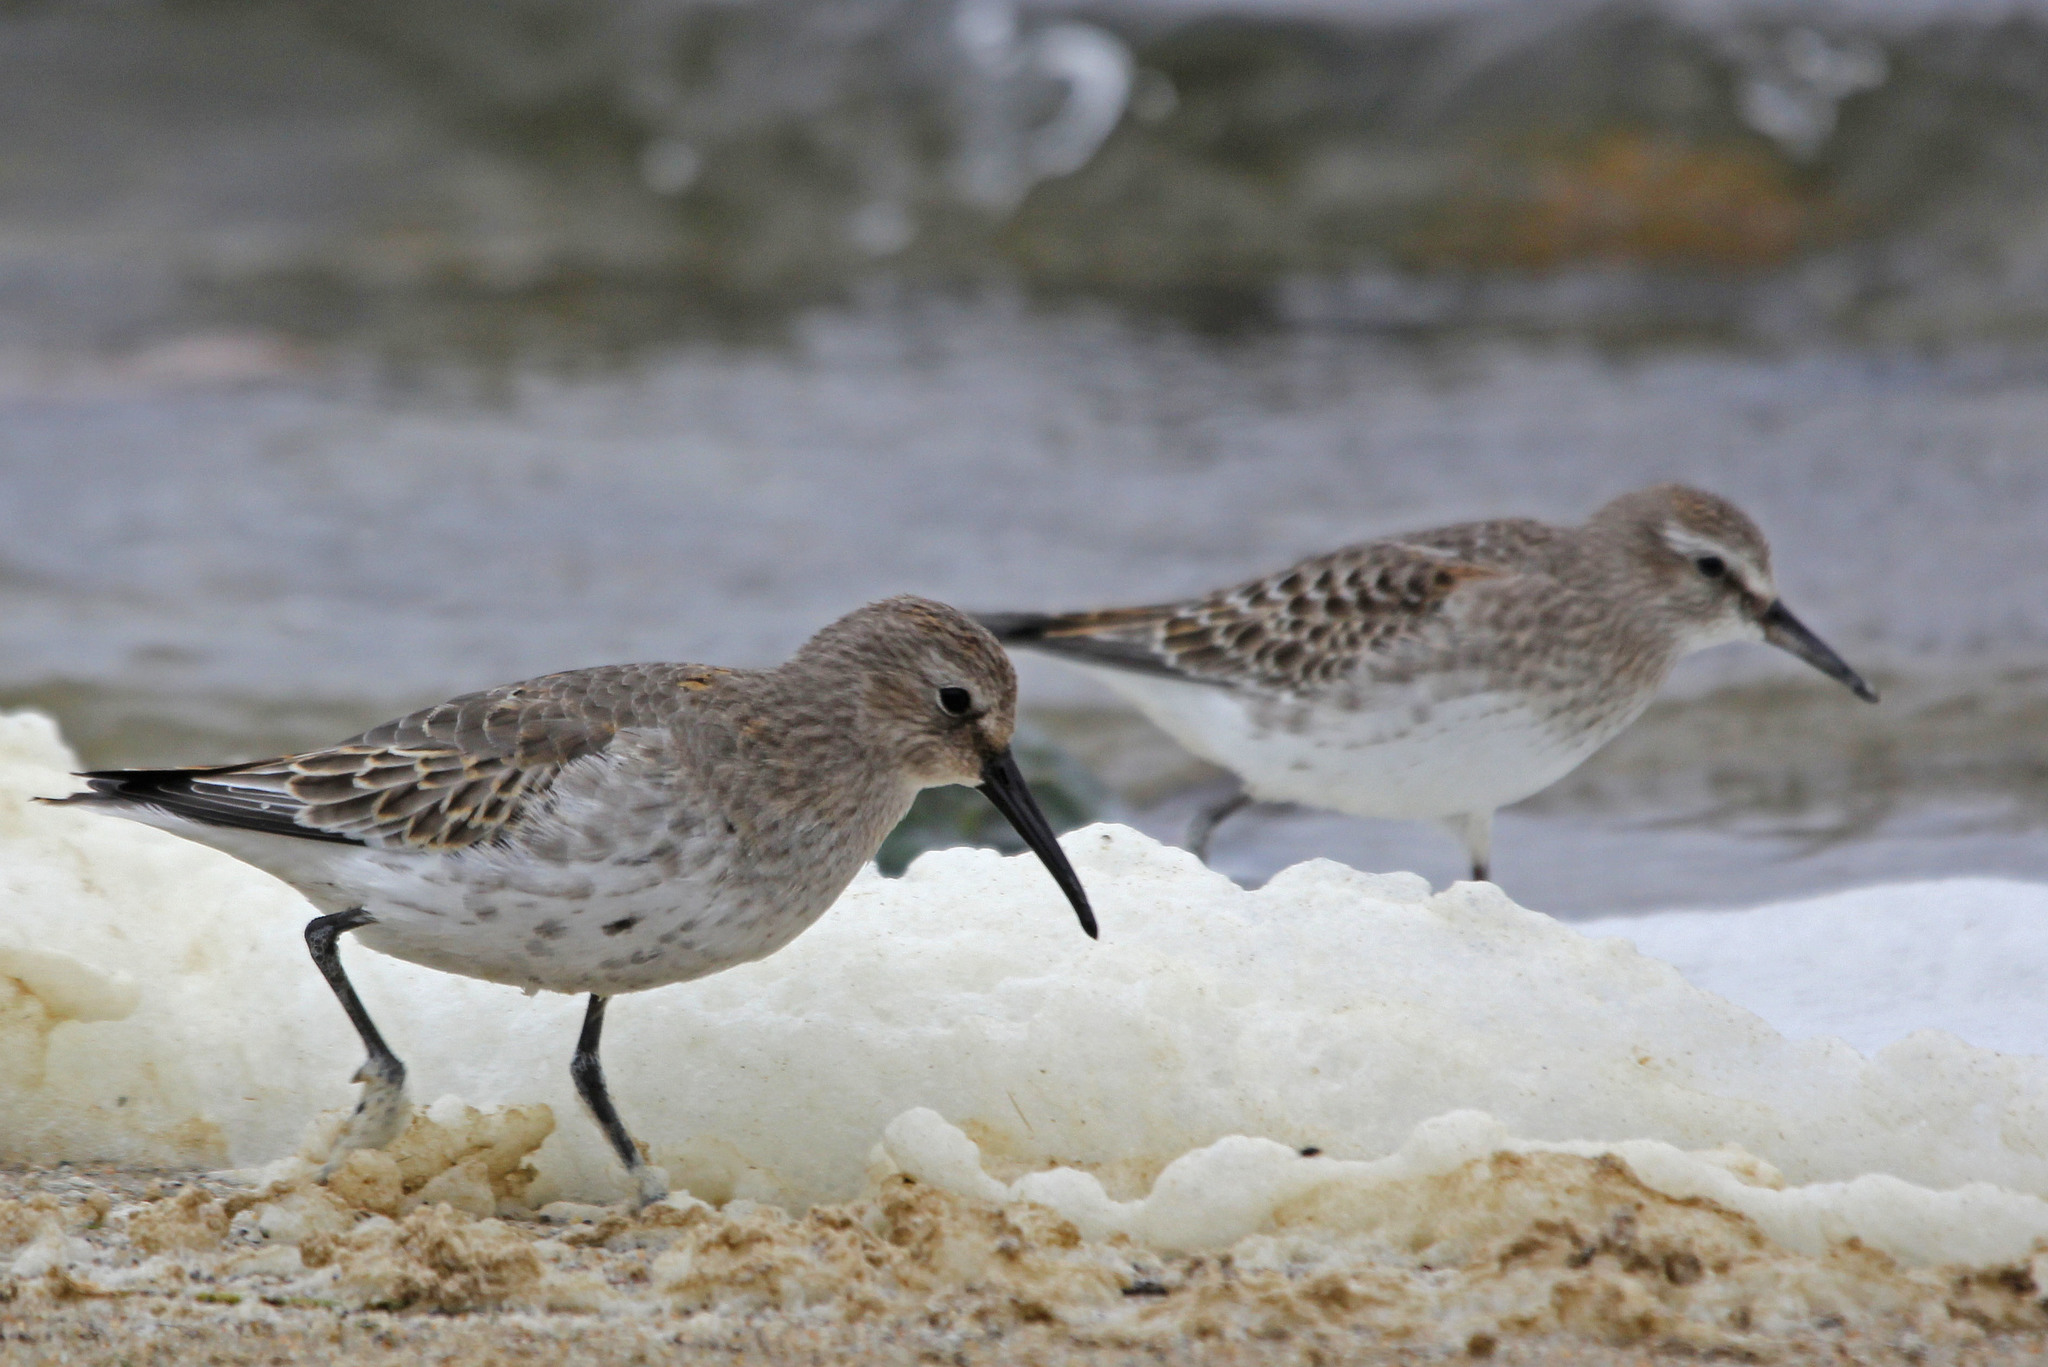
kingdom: Animalia
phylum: Chordata
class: Aves
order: Charadriiformes
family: Scolopacidae
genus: Calidris
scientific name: Calidris alpina
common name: Dunlin
